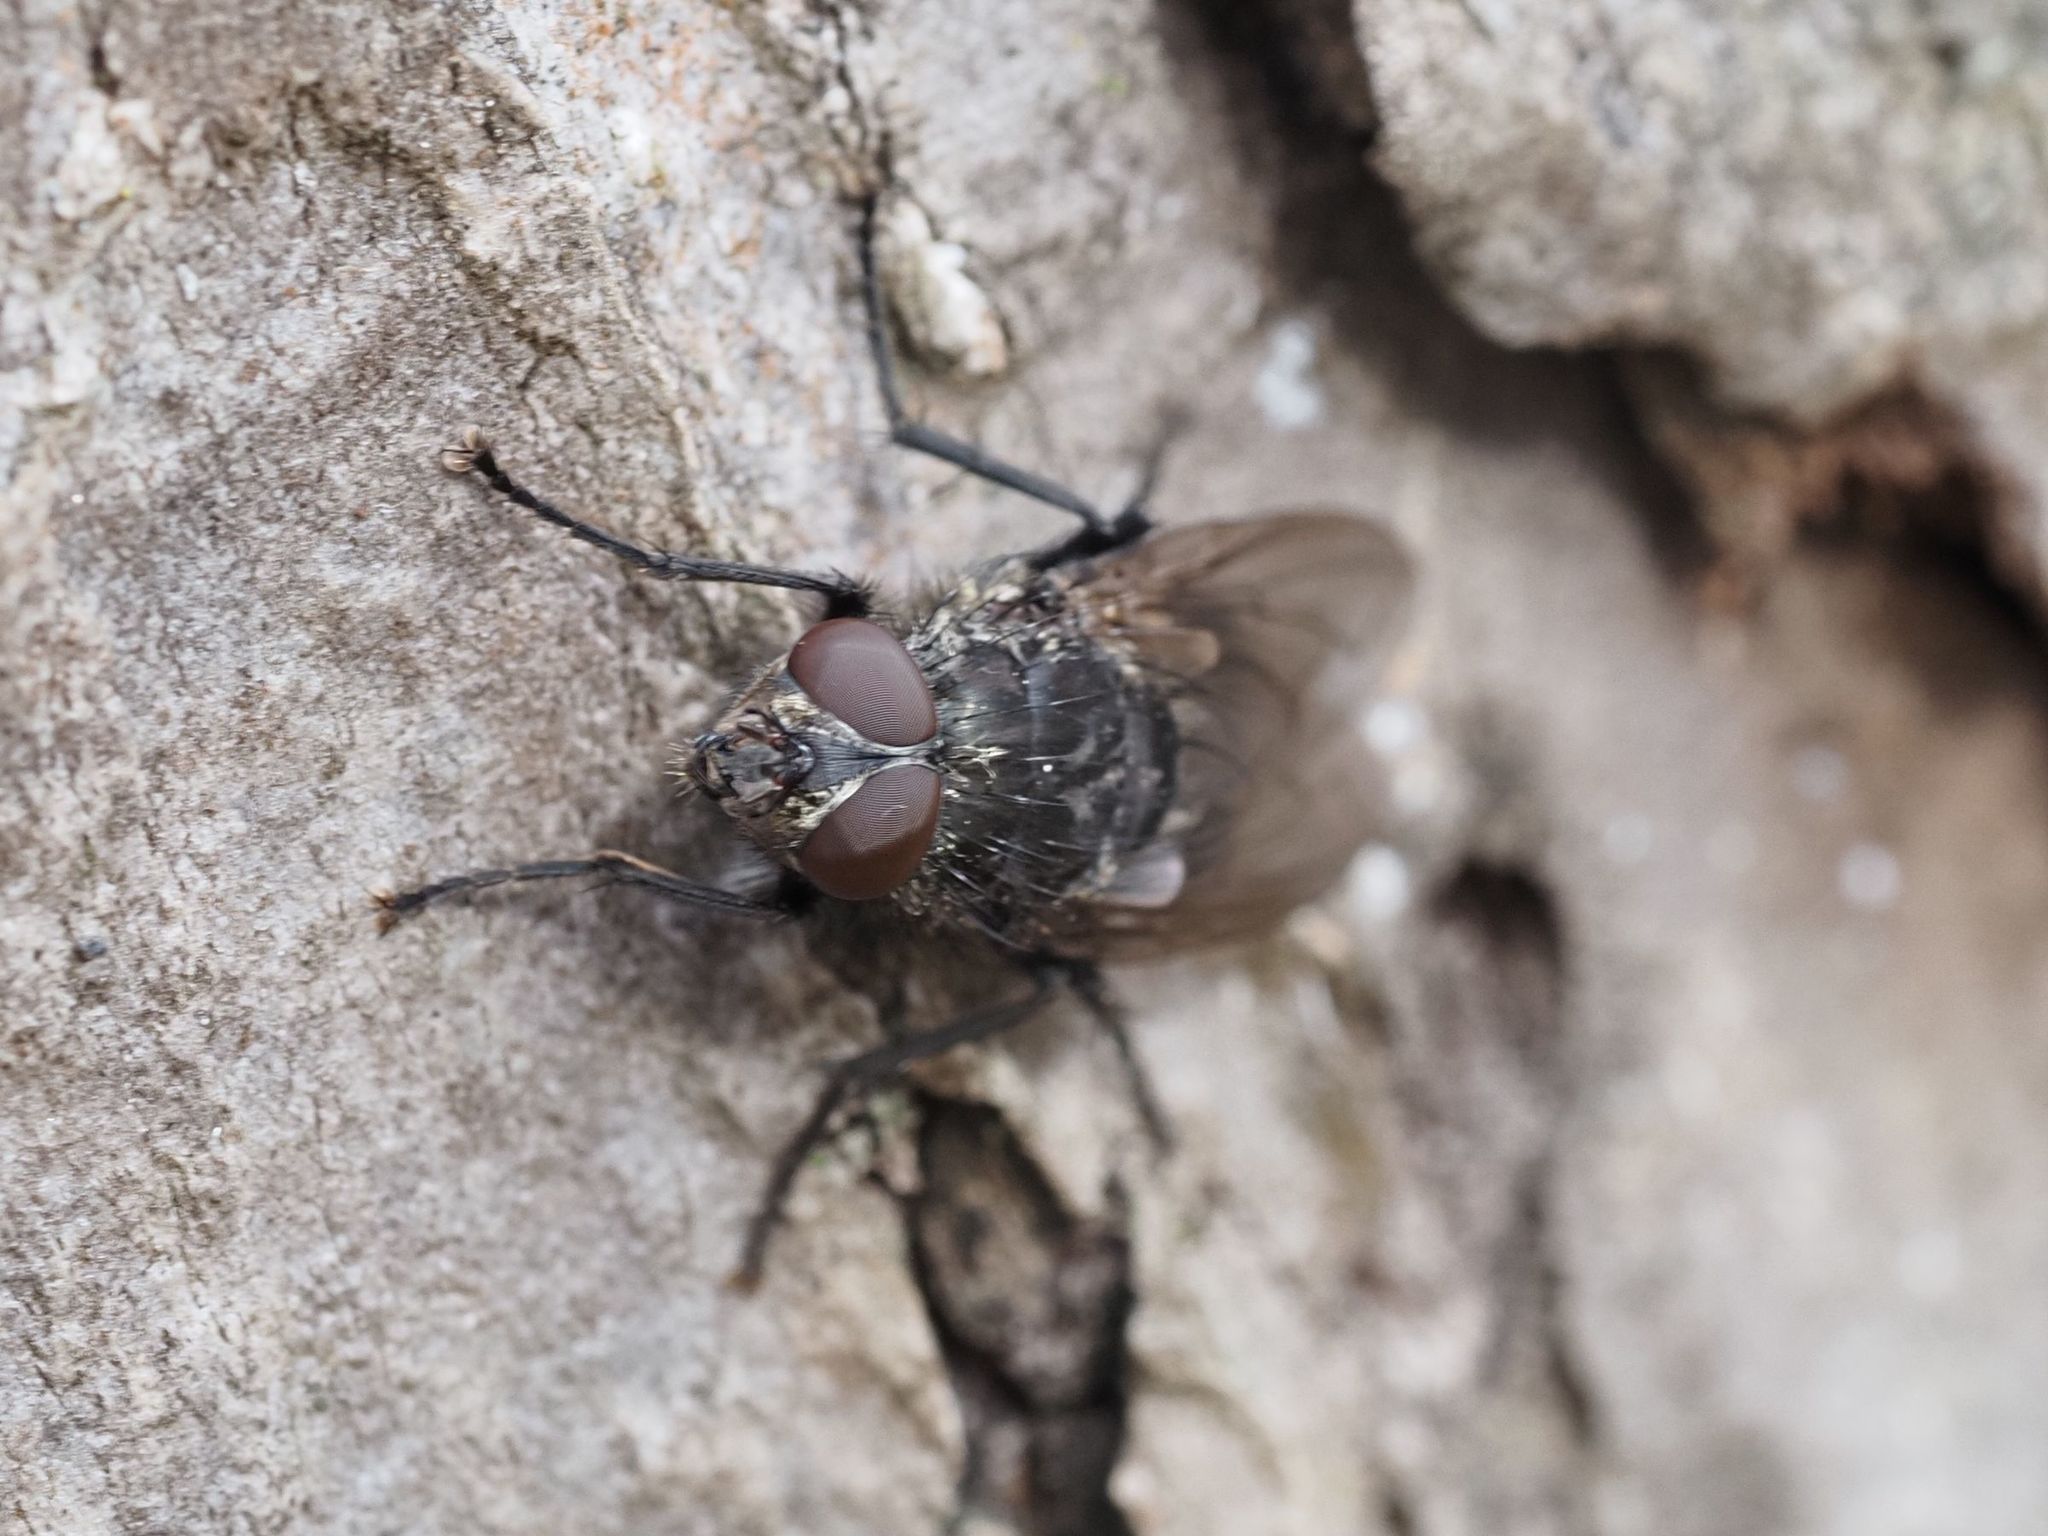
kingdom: Animalia
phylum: Arthropoda
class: Insecta
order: Diptera
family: Polleniidae
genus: Pollenia
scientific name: Pollenia vagabunda
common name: Vagabund cluster fly
